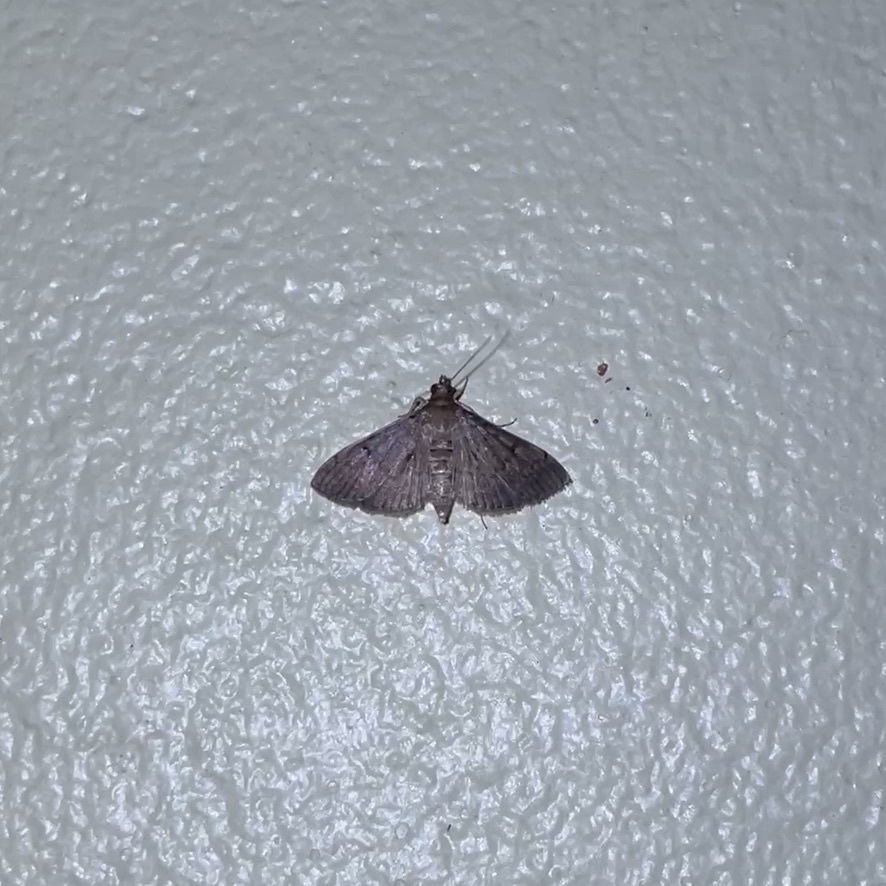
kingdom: Animalia
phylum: Arthropoda
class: Insecta
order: Lepidoptera
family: Crambidae
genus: Herpetogramma
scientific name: Herpetogramma phaeopteralis
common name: Dusky herpetogramma moth
